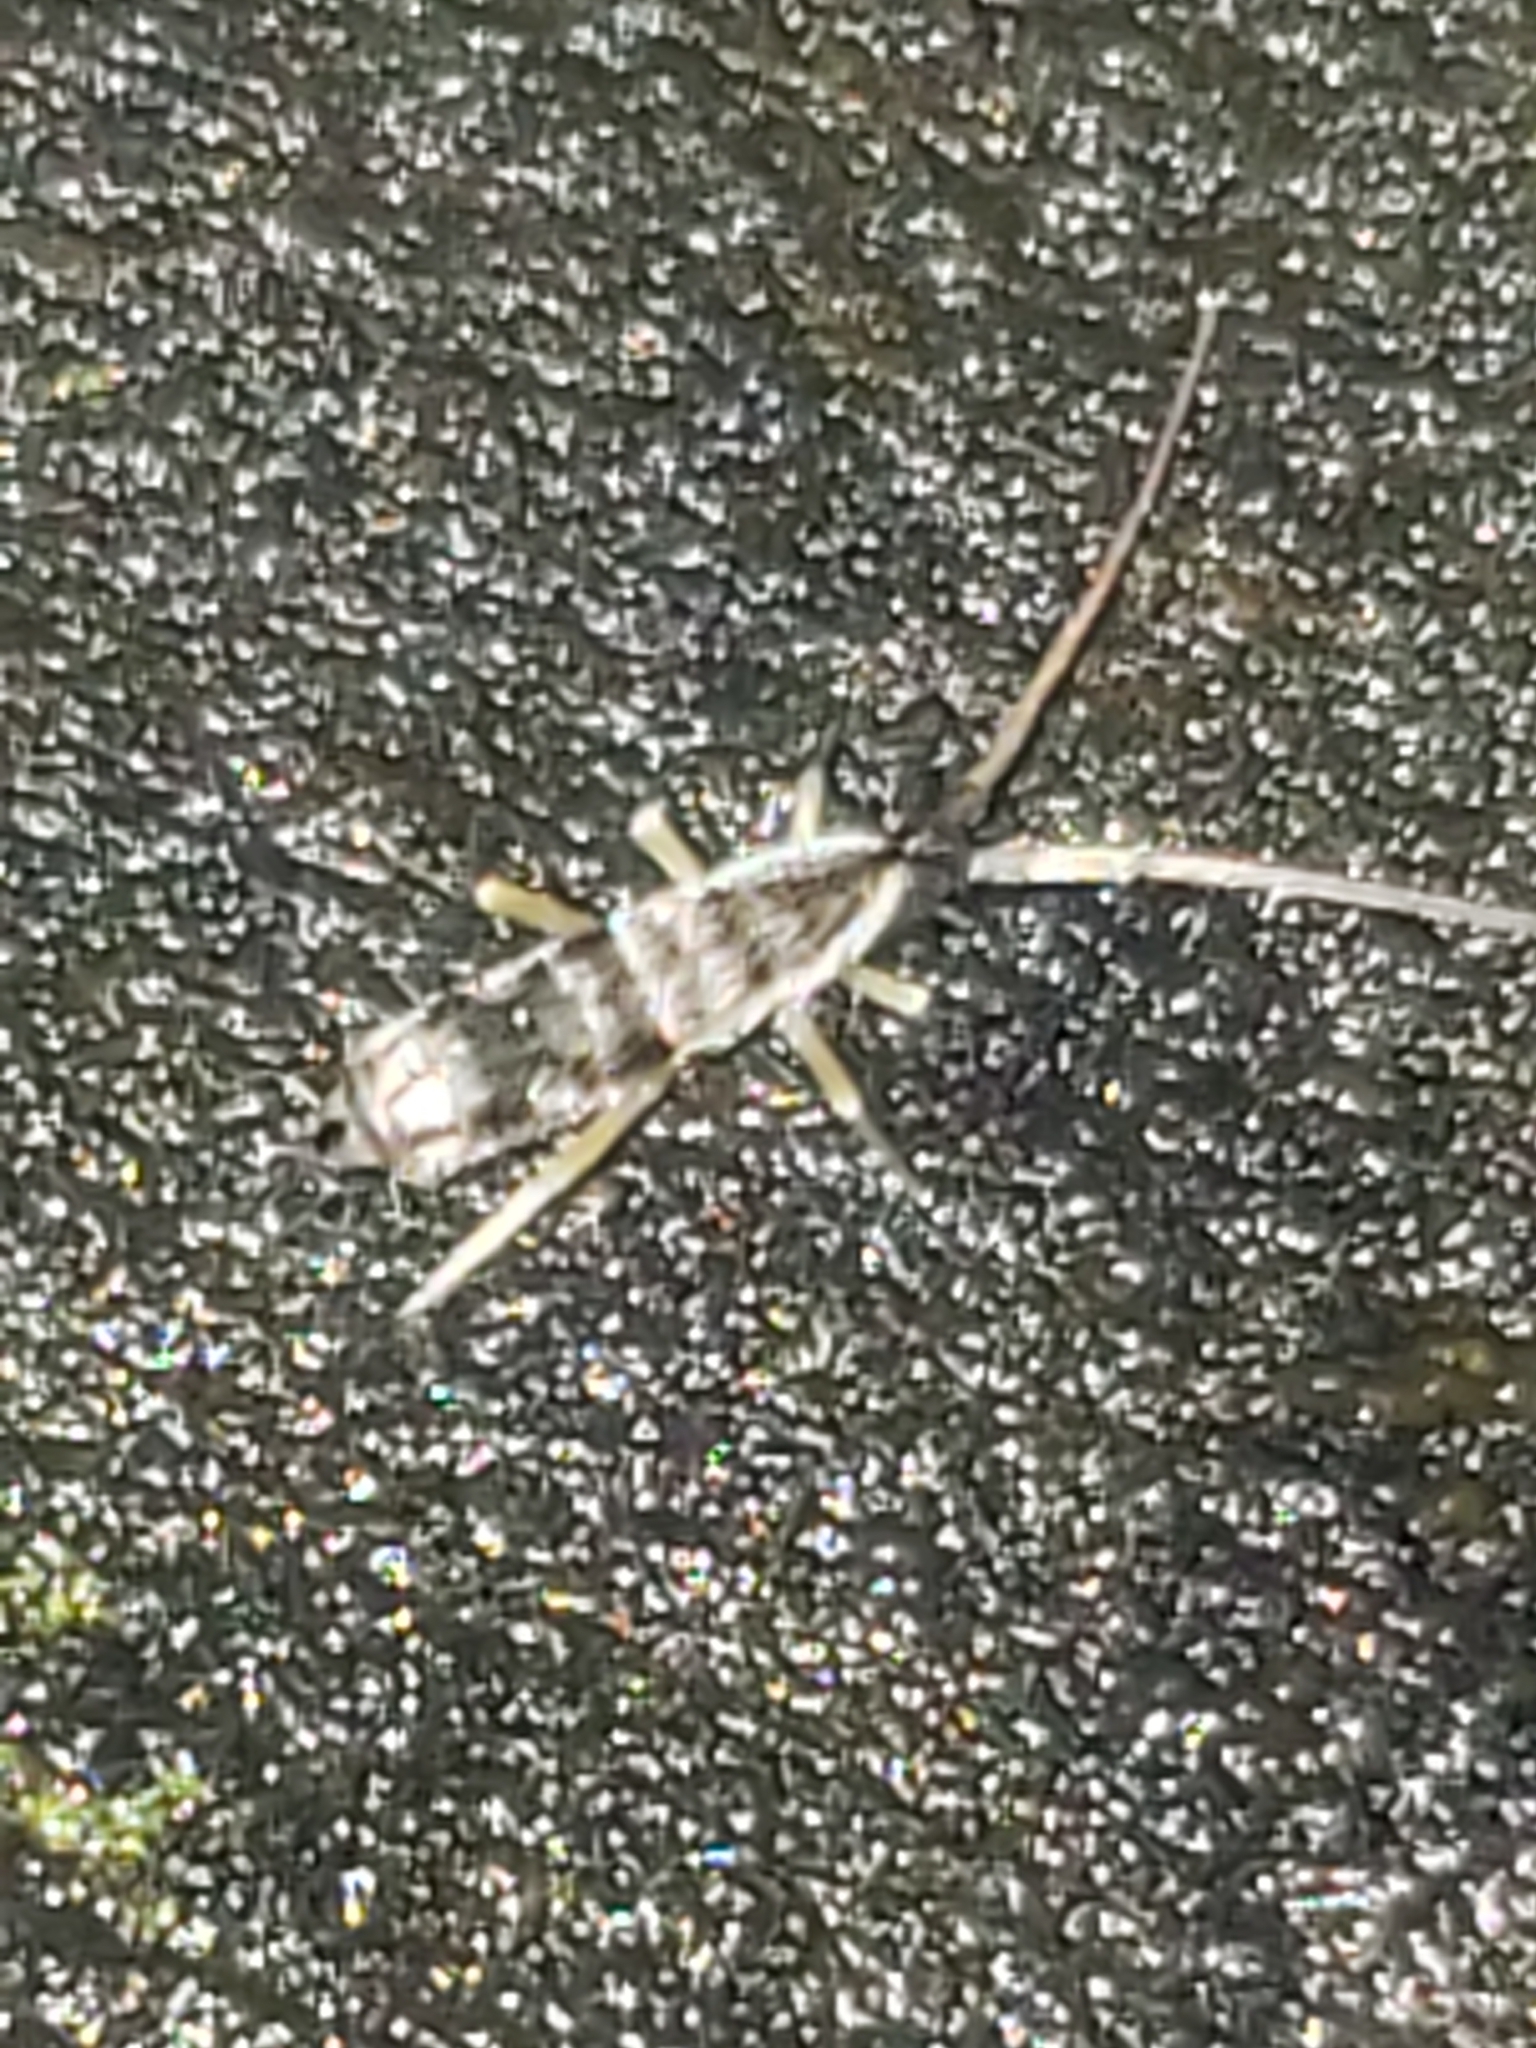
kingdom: Animalia
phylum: Arthropoda
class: Collembola
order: Entomobryomorpha
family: Tomoceridae
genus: Pogonognathellus
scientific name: Pogonognathellus elongatus
